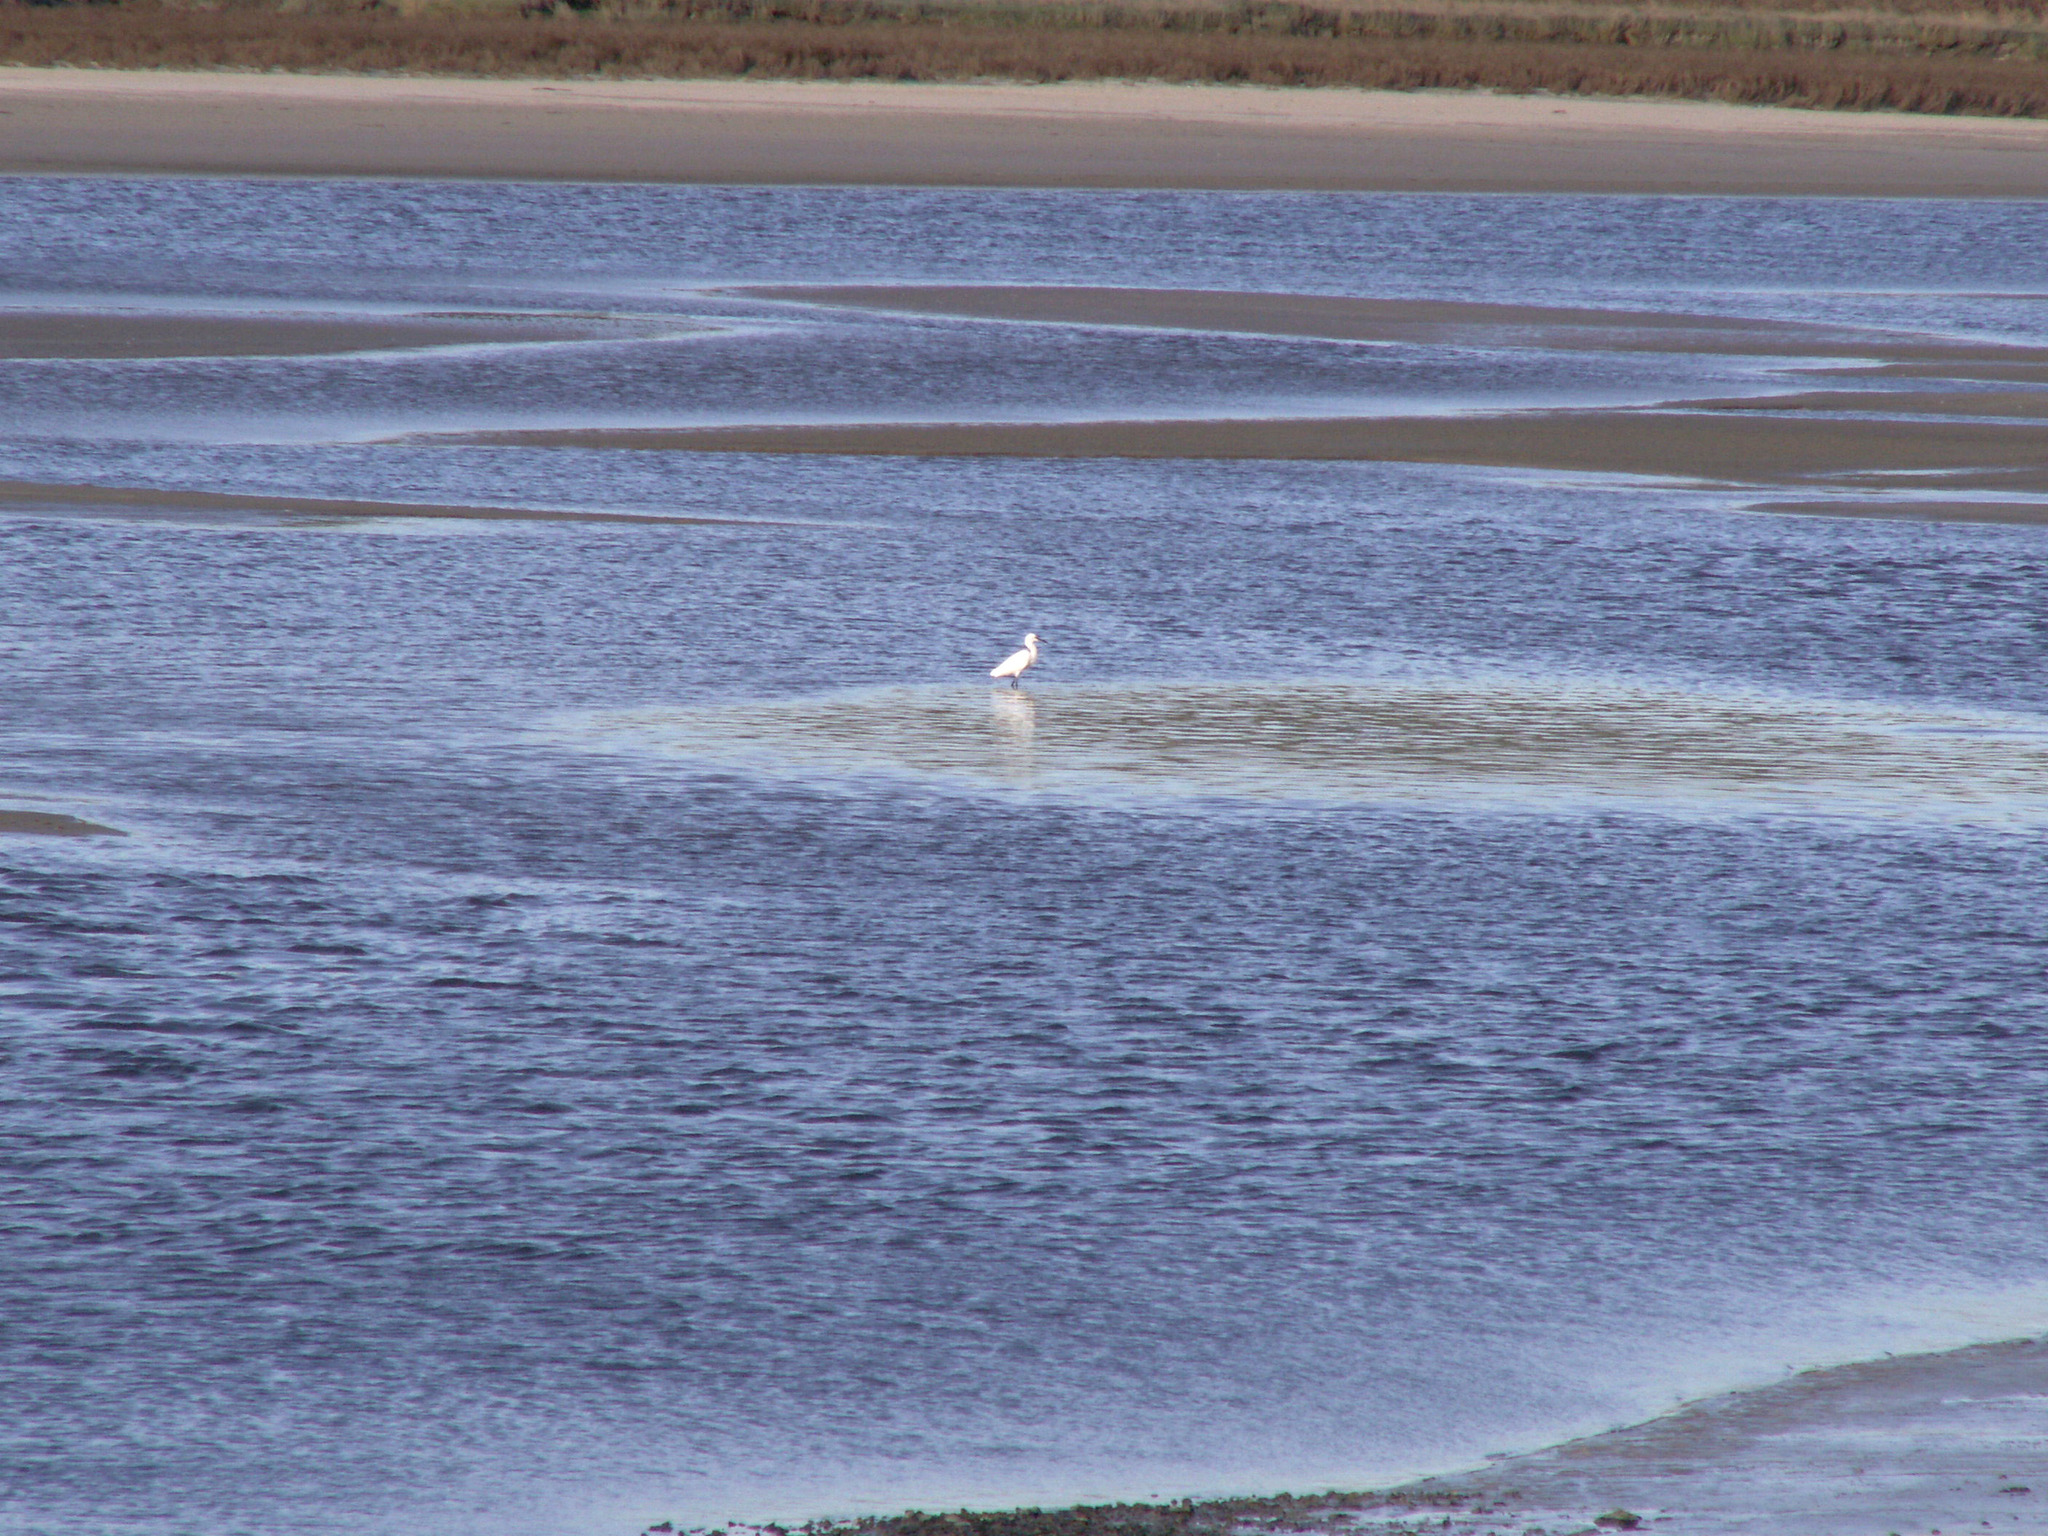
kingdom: Animalia
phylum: Chordata
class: Aves
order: Pelecaniformes
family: Ardeidae
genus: Egretta
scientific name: Egretta garzetta
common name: Little egret
